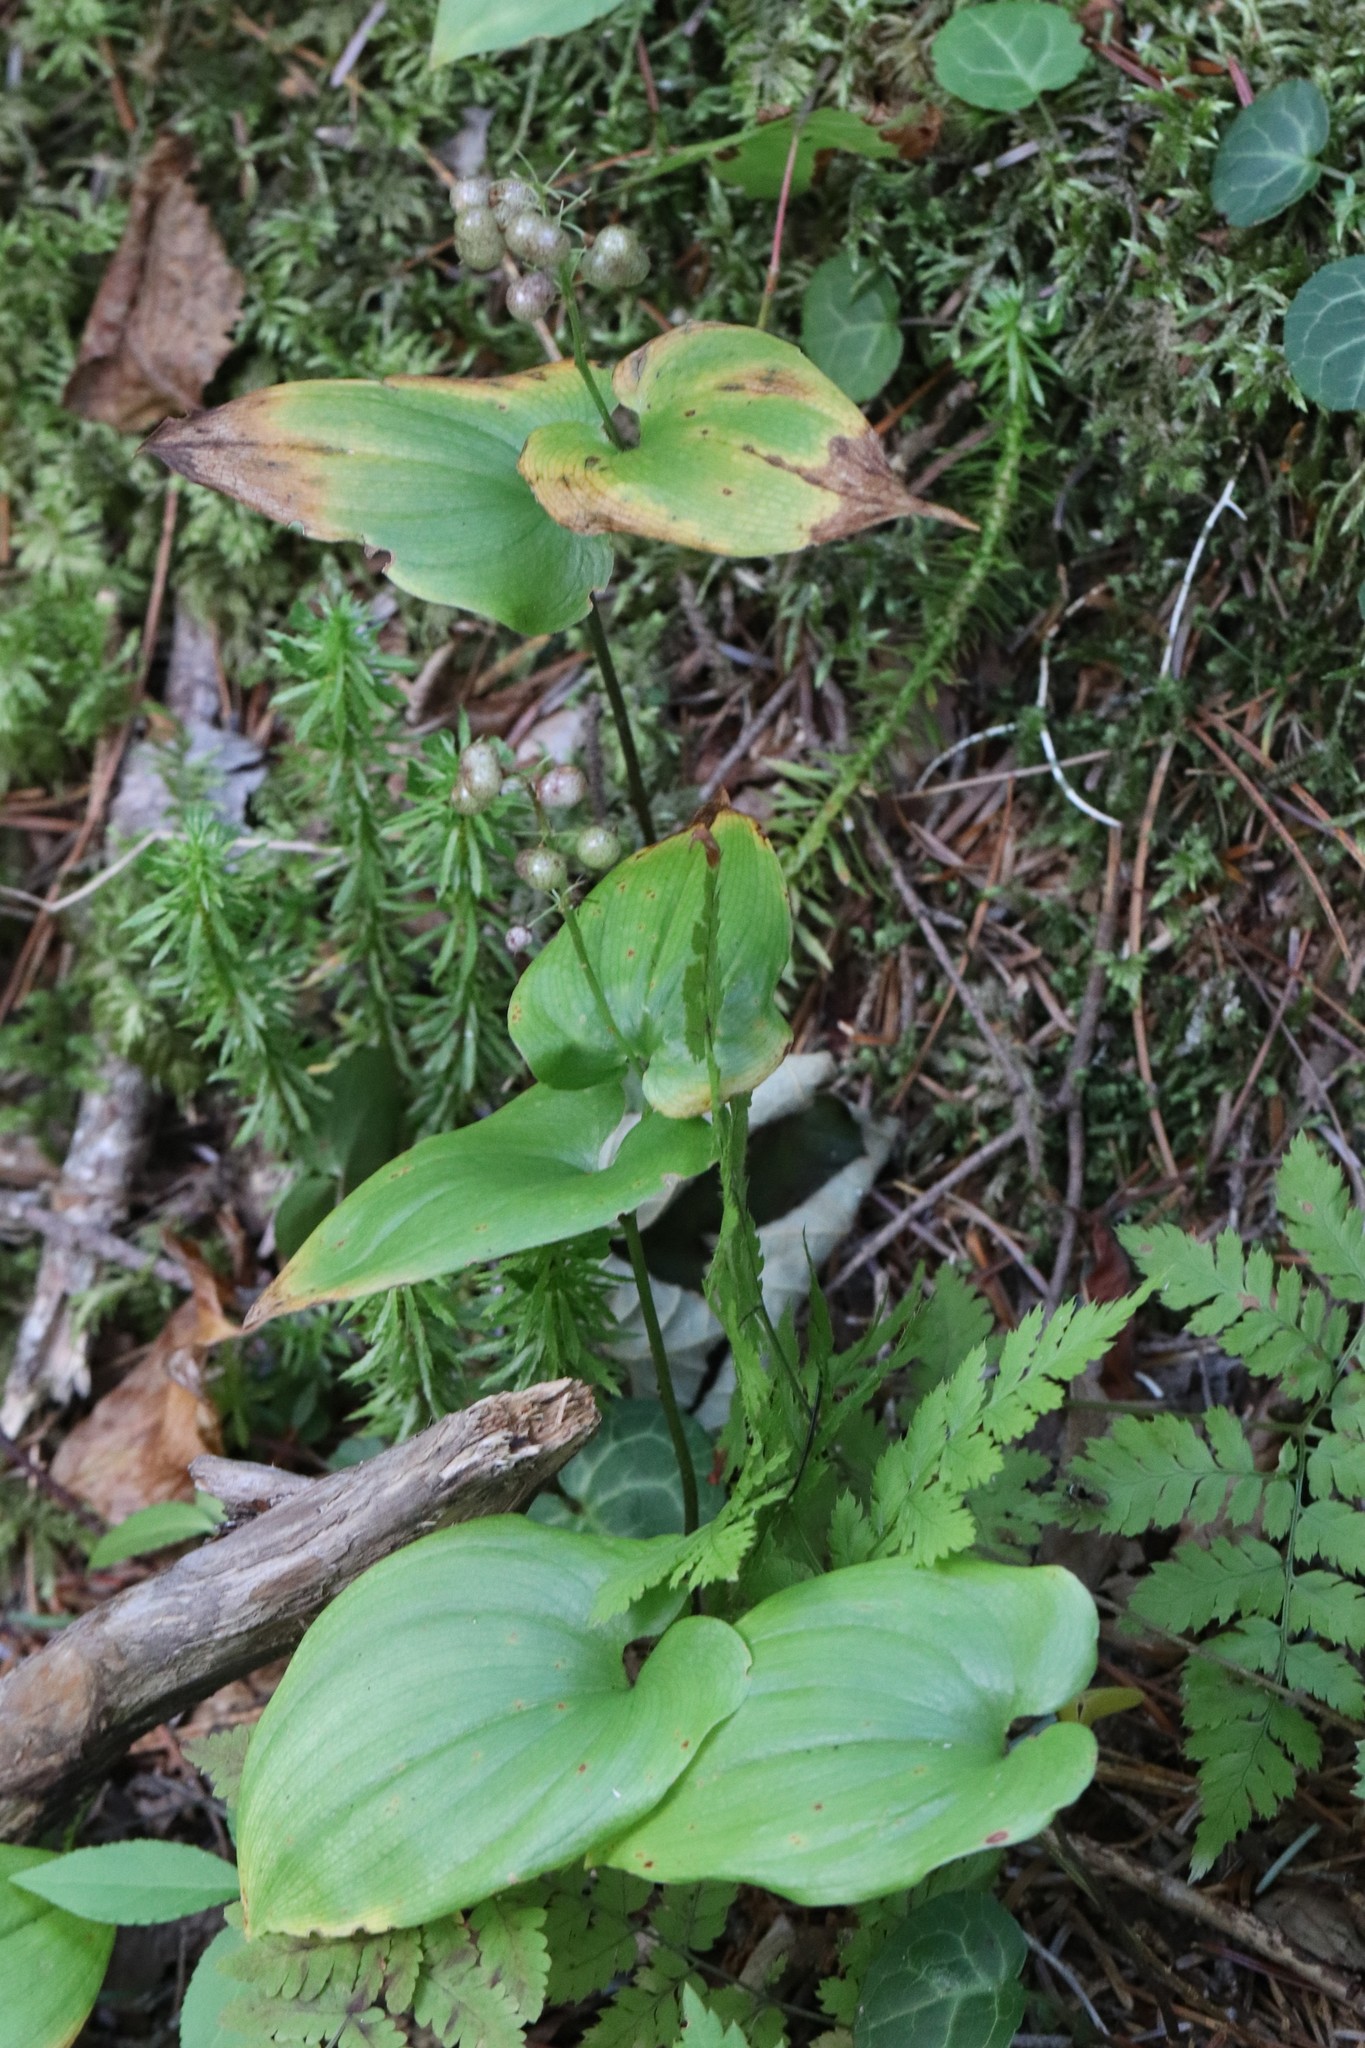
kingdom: Plantae
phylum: Tracheophyta
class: Liliopsida
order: Asparagales
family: Asparagaceae
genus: Maianthemum
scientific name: Maianthemum bifolium
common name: May lily
